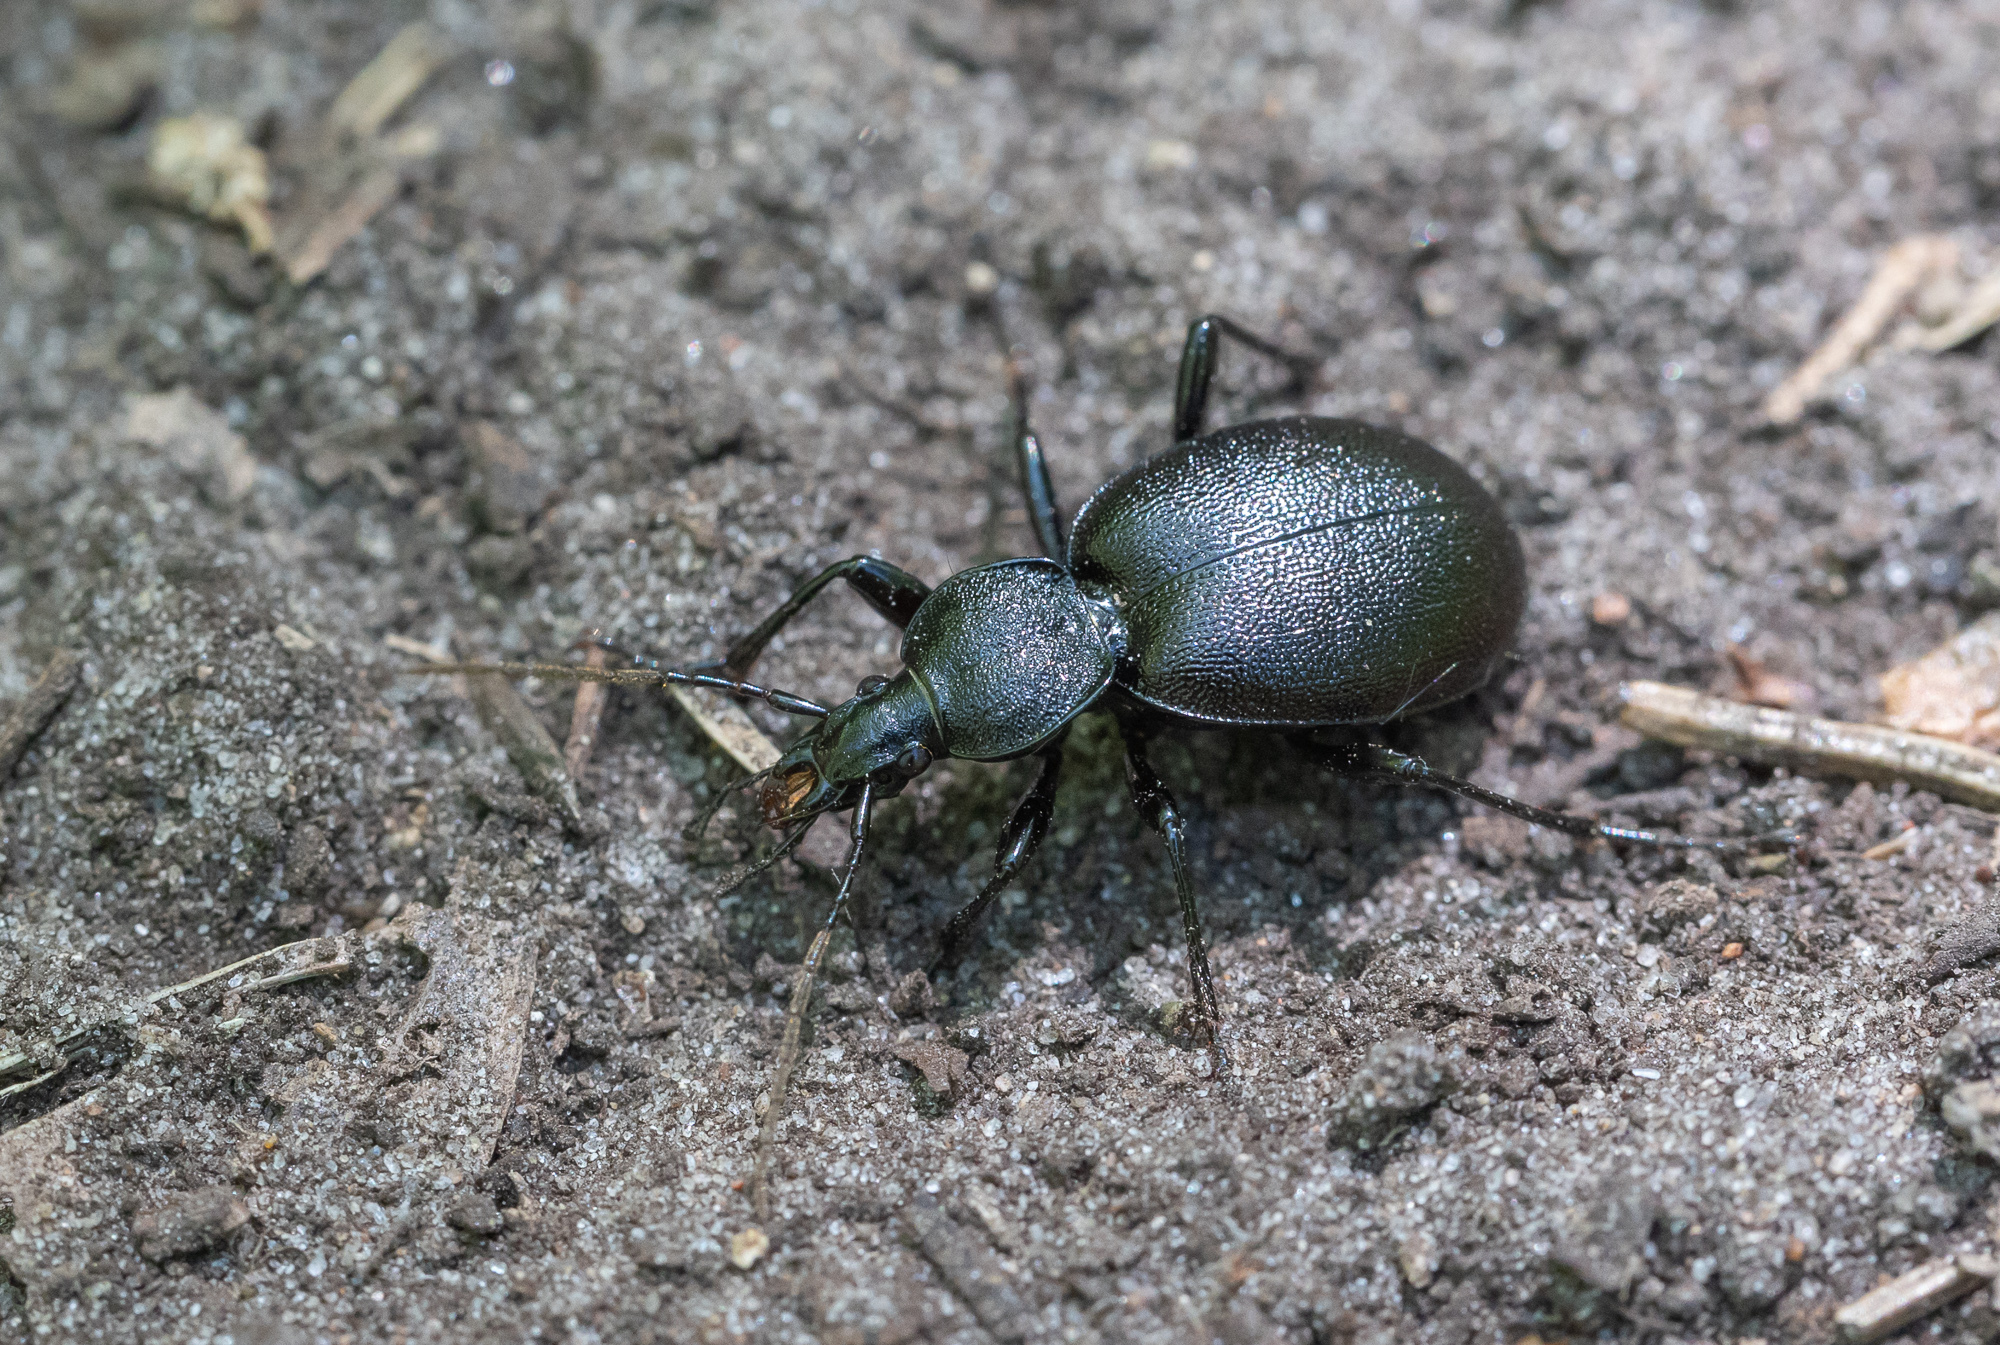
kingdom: Animalia
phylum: Arthropoda
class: Insecta
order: Coleoptera
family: Carabidae
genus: Cychrus
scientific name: Cychrus caraboides
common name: Snail hunter
